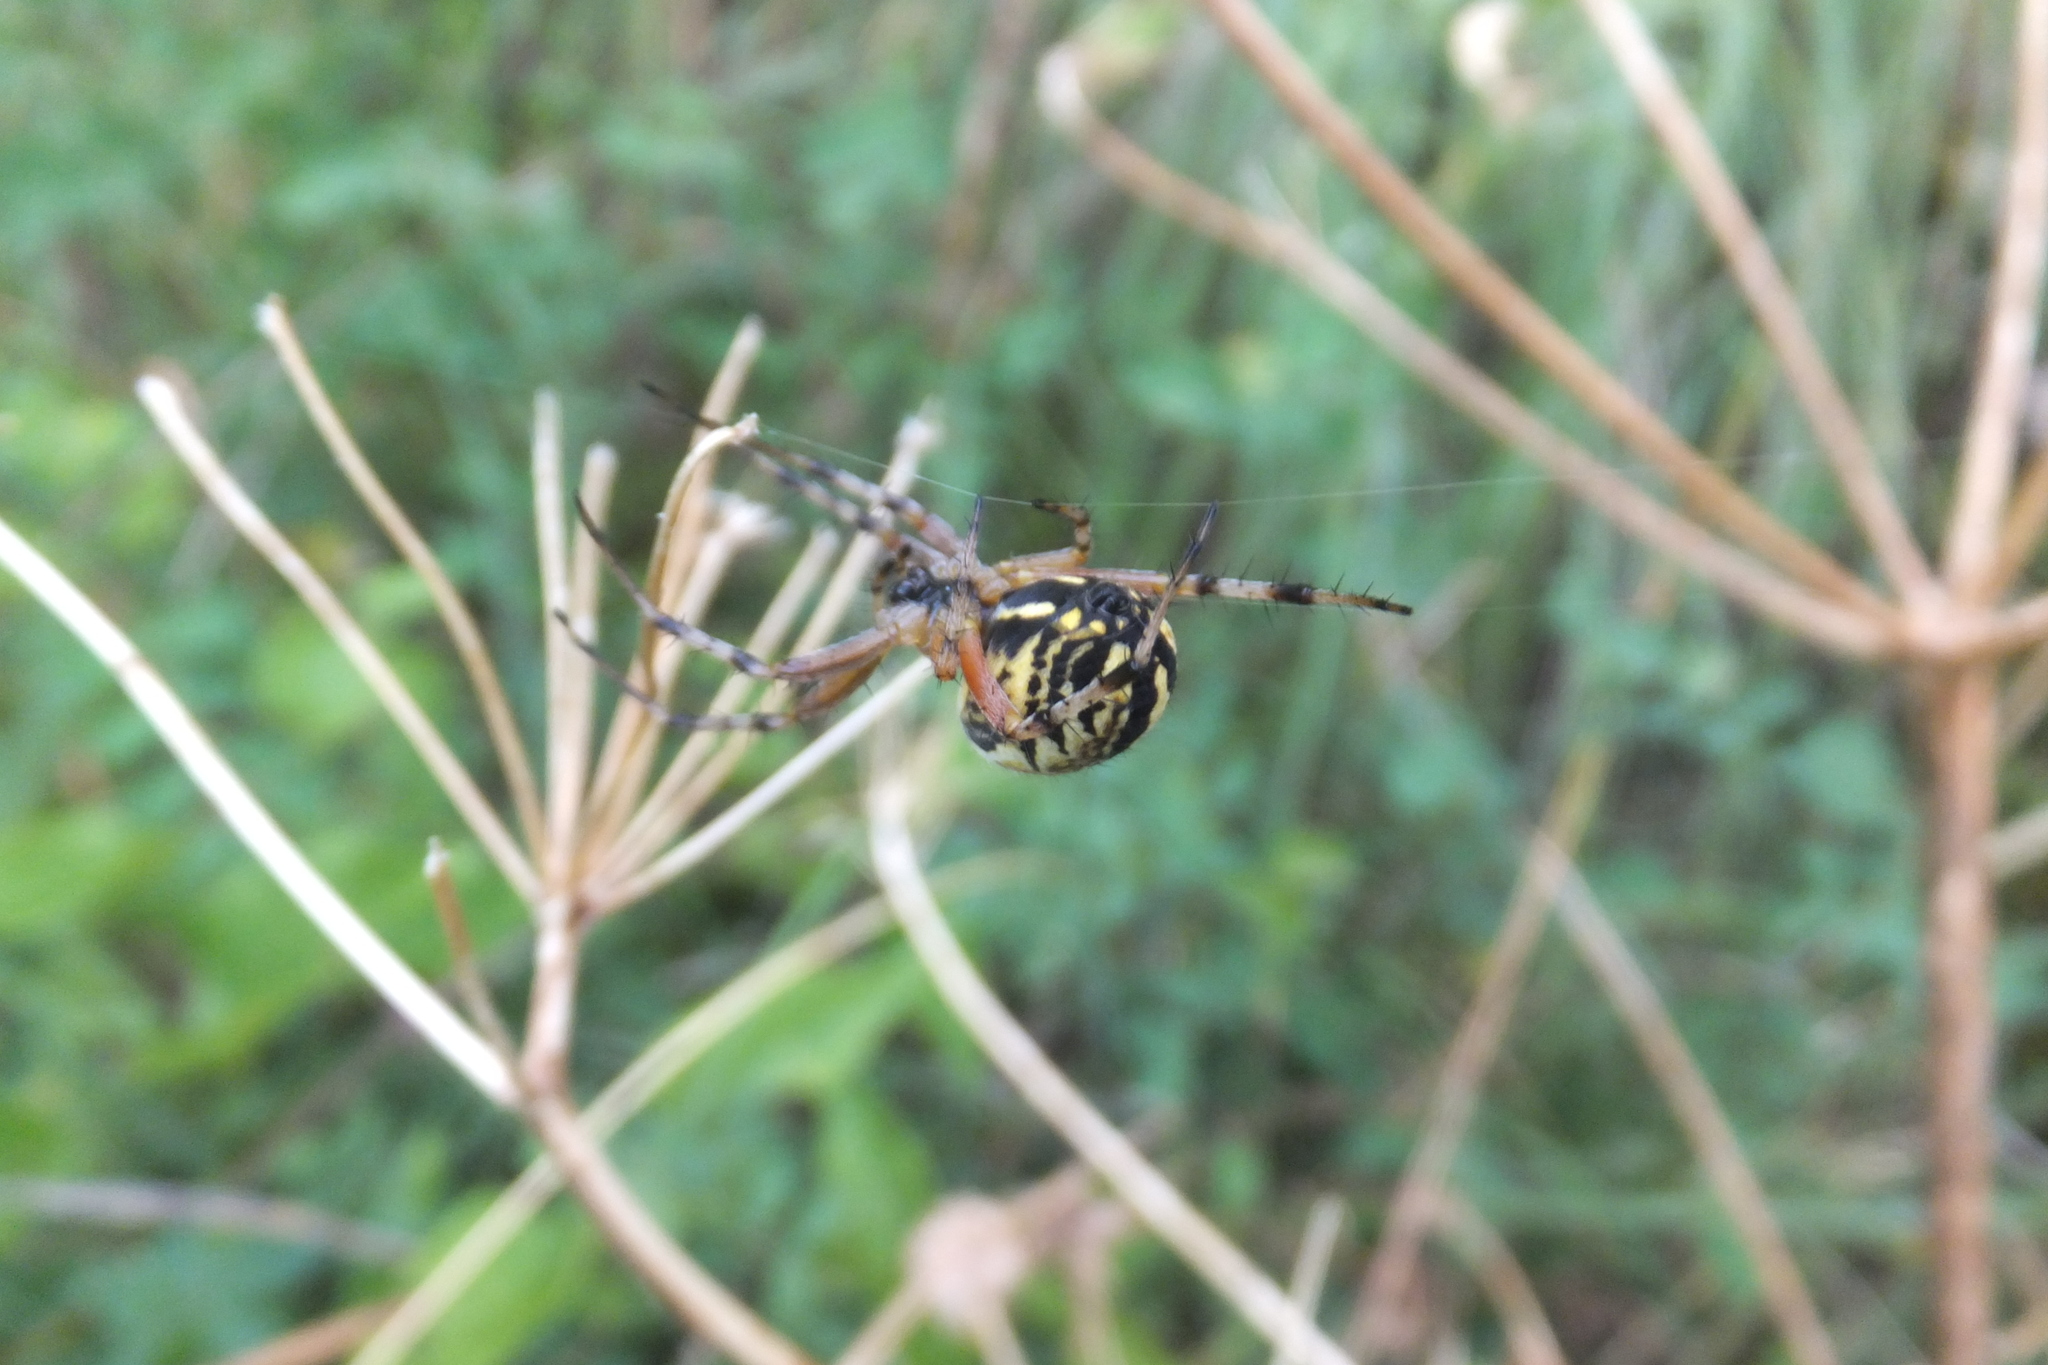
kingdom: Animalia
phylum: Arthropoda
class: Arachnida
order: Araneae
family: Araneidae
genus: Neoscona
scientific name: Neoscona adianta
